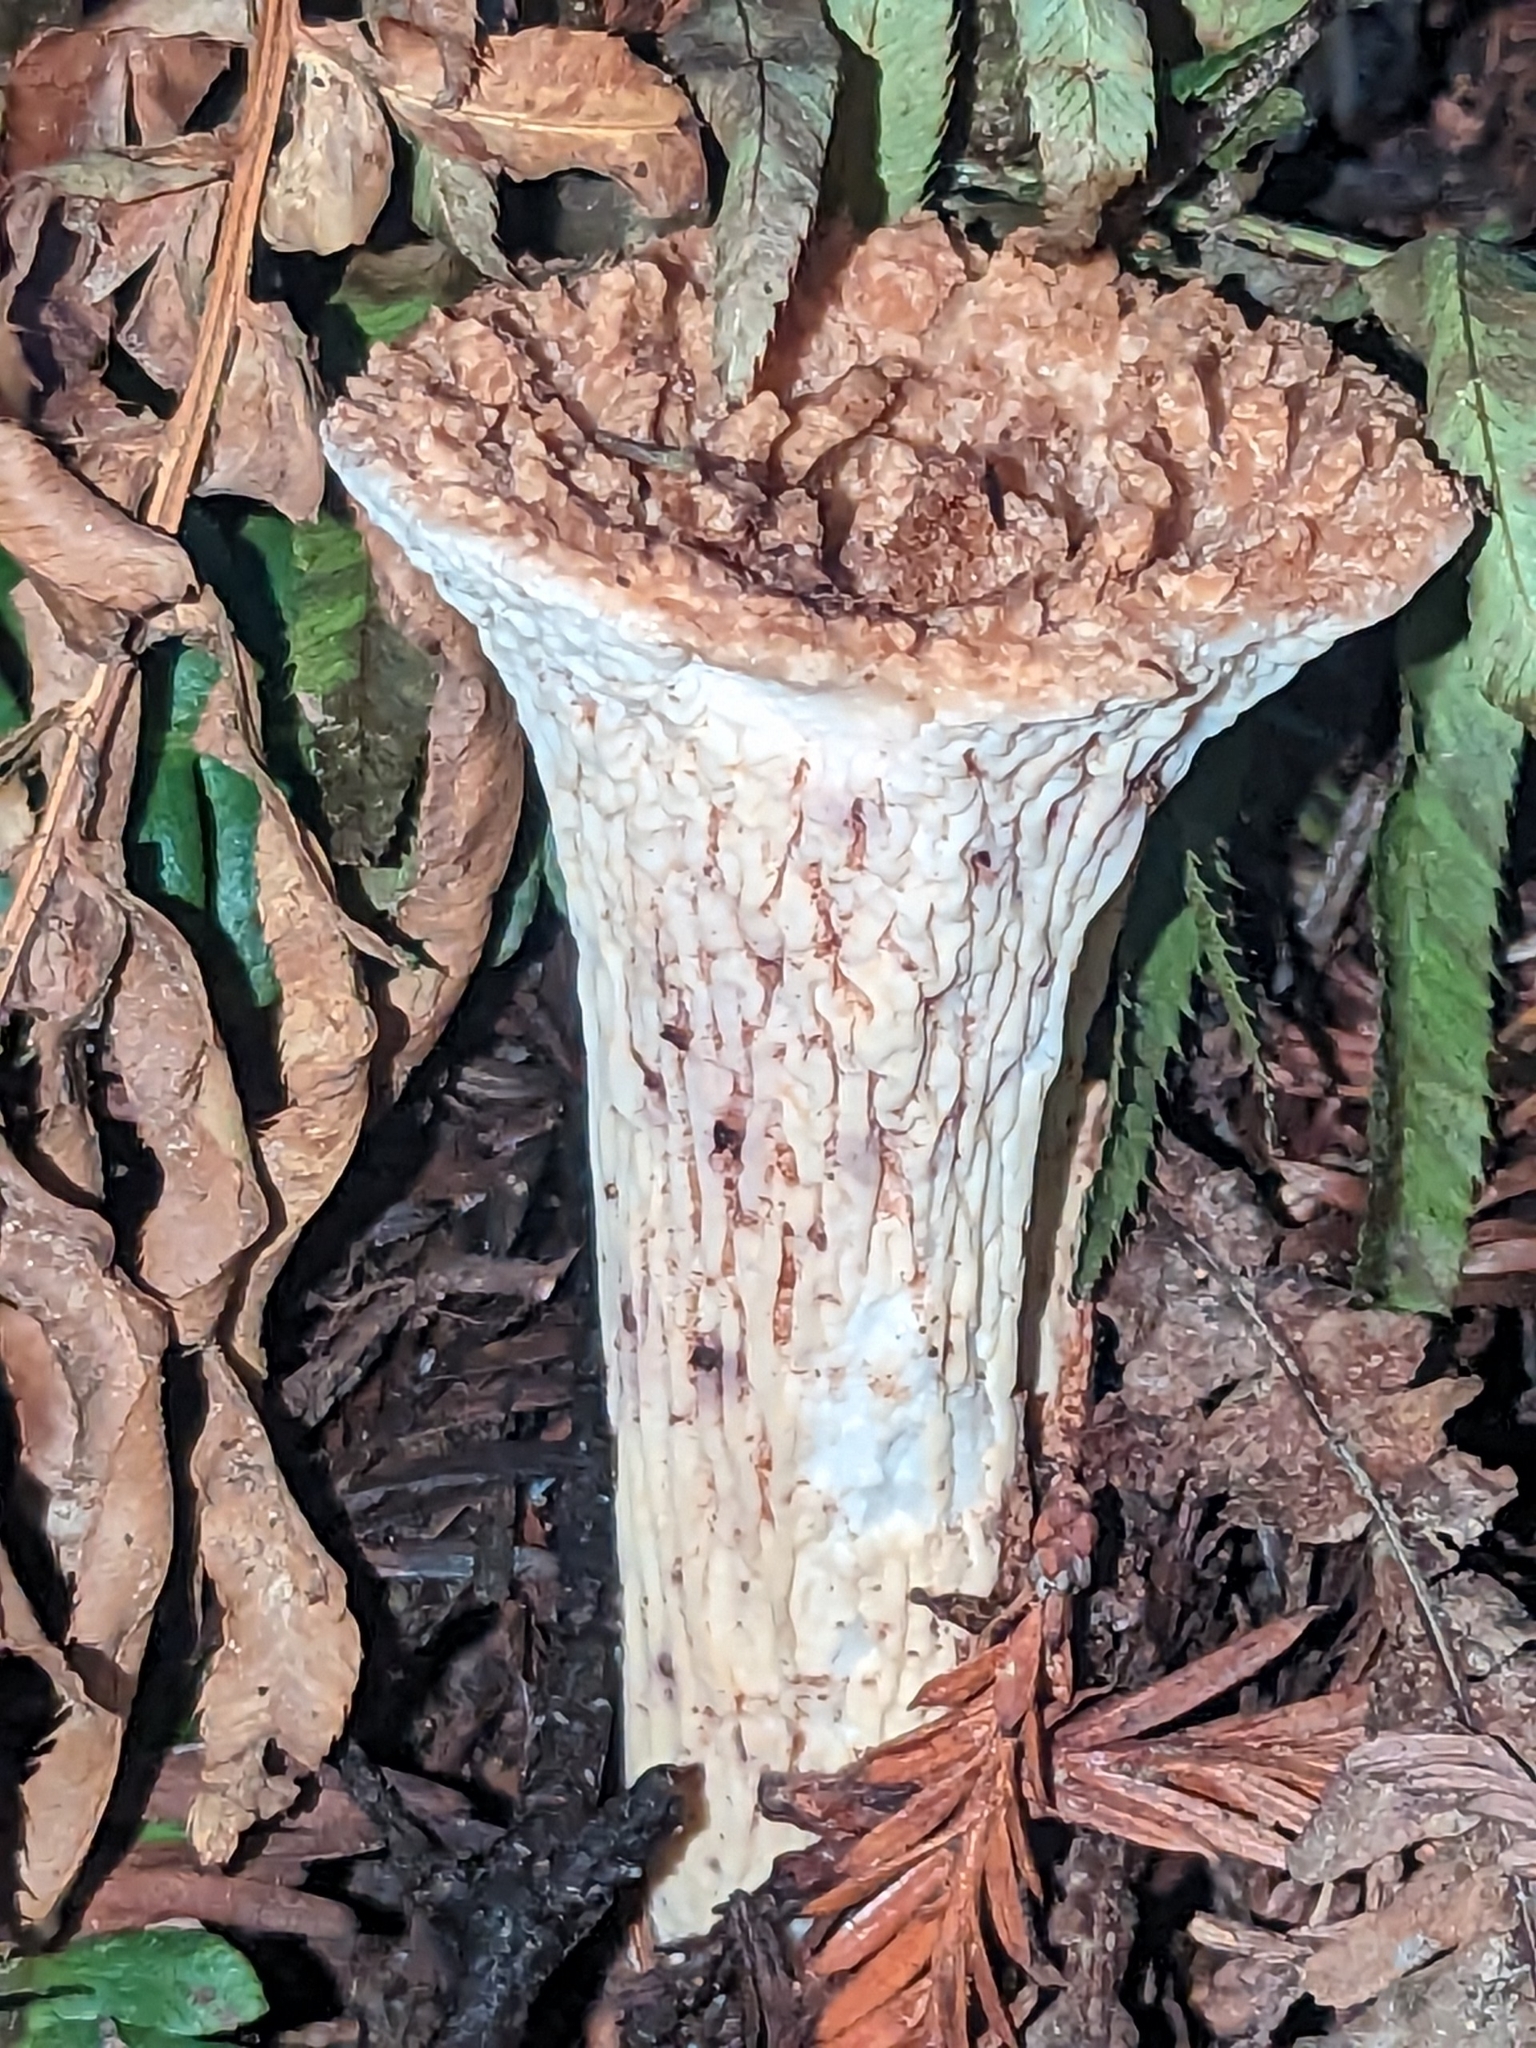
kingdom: Fungi
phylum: Basidiomycota
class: Agaricomycetes
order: Gomphales
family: Gomphaceae
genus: Turbinellus
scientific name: Turbinellus kauffmanii
